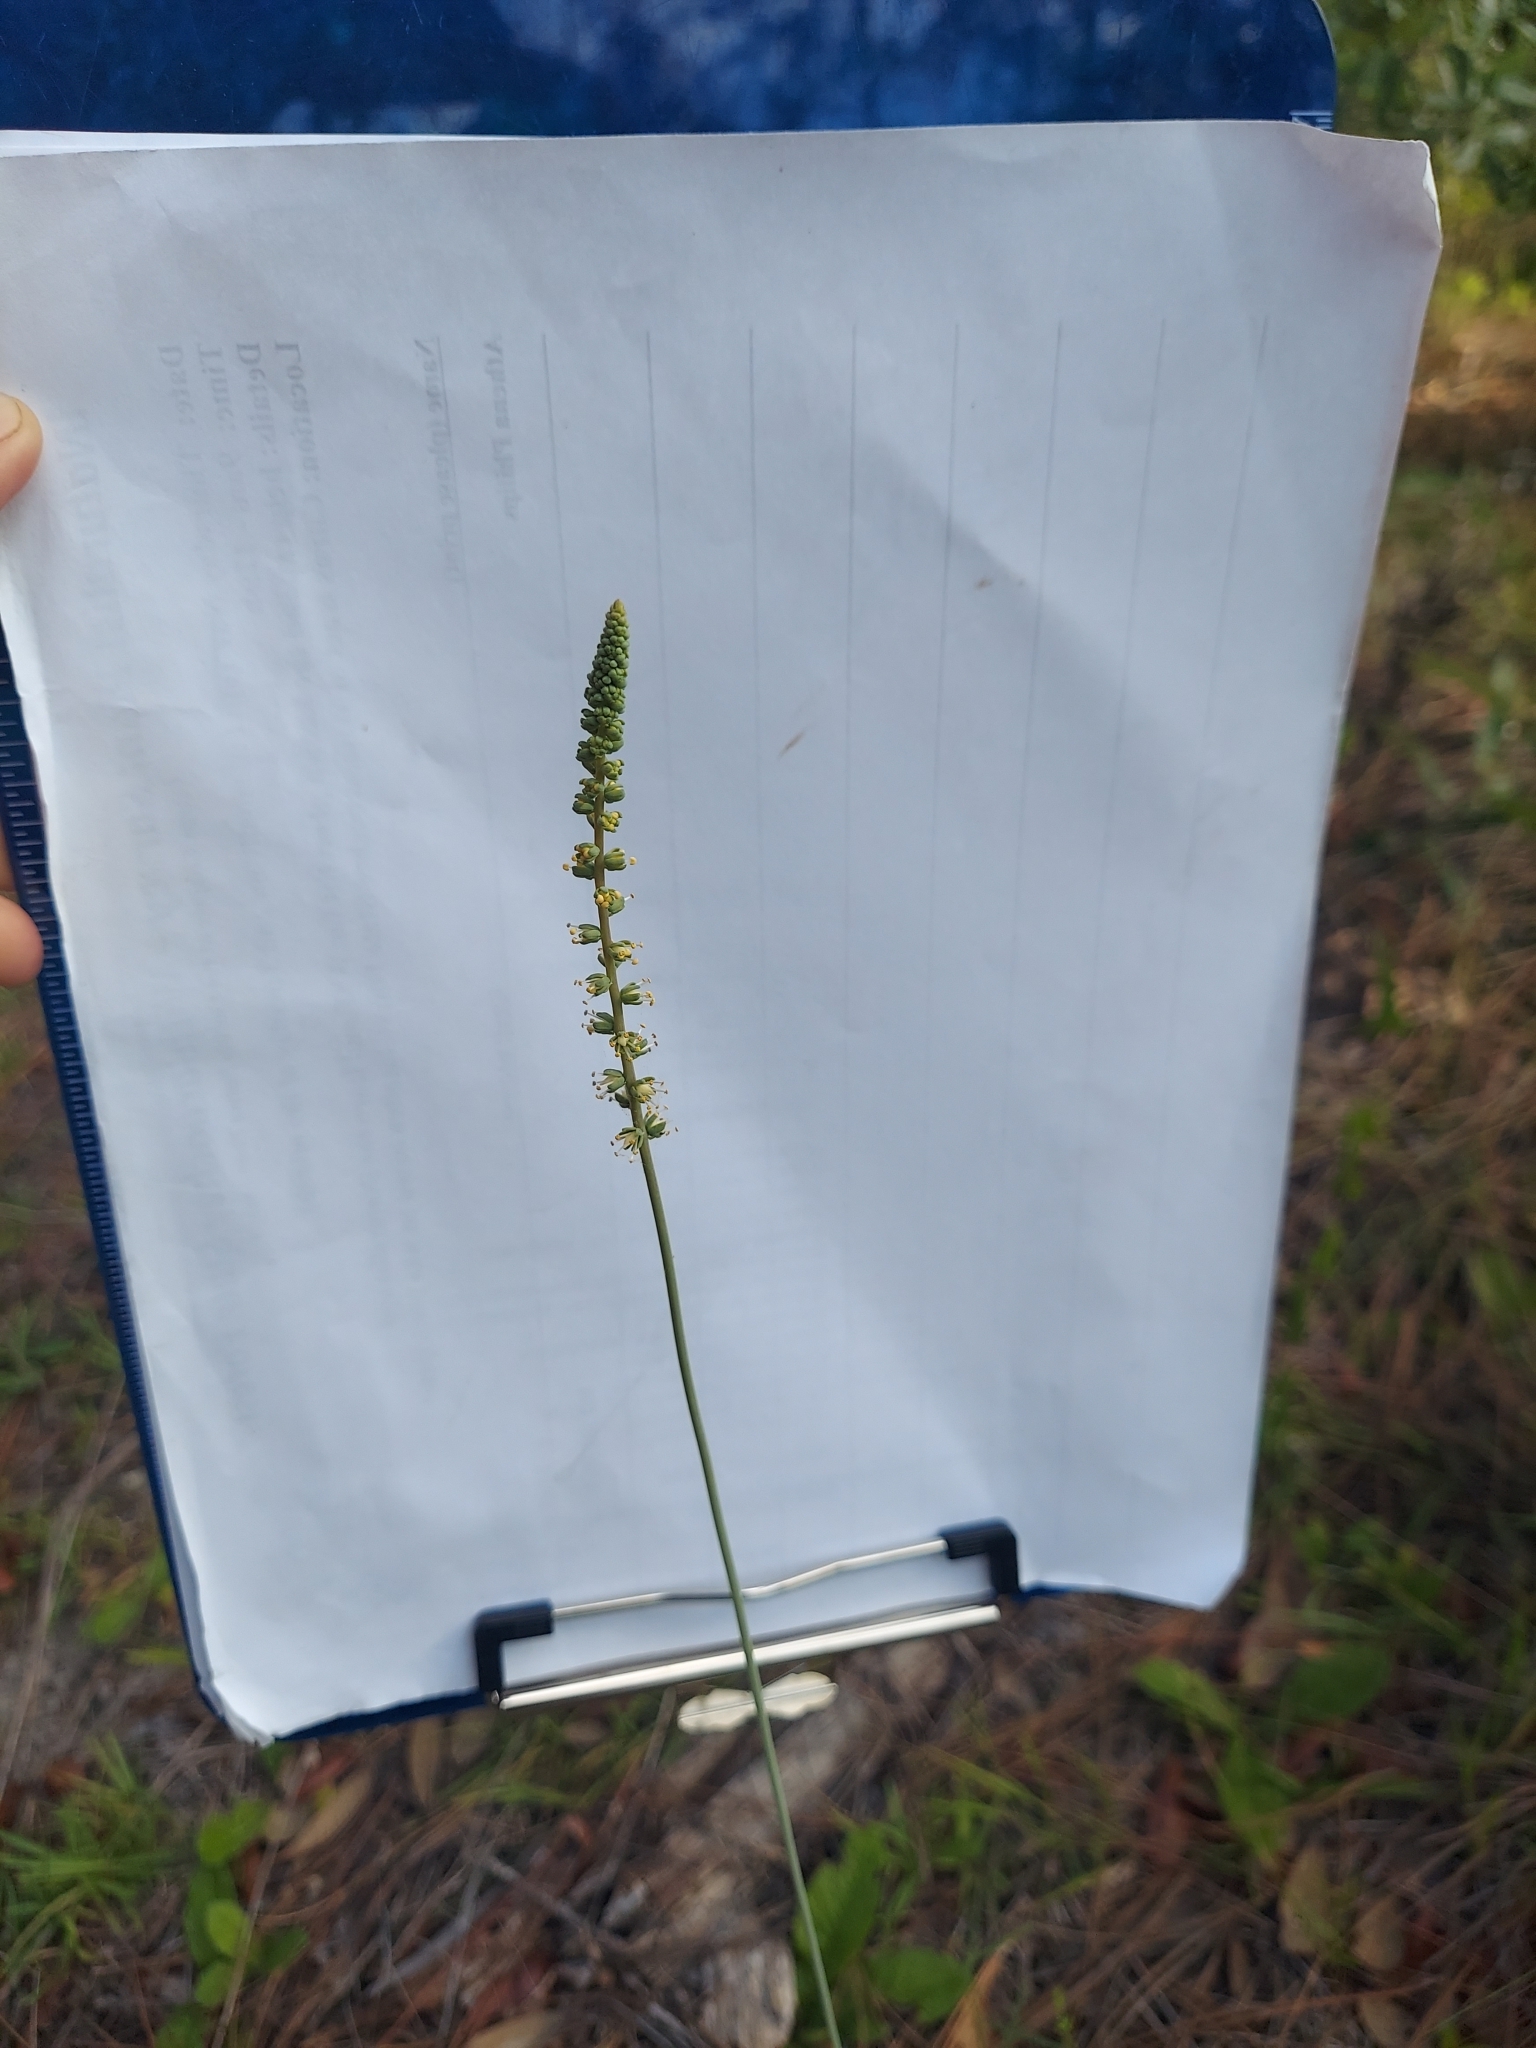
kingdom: Plantae
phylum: Tracheophyta
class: Liliopsida
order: Liliales
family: Melanthiaceae
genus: Schoenocaulon
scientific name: Schoenocaulon dubium
